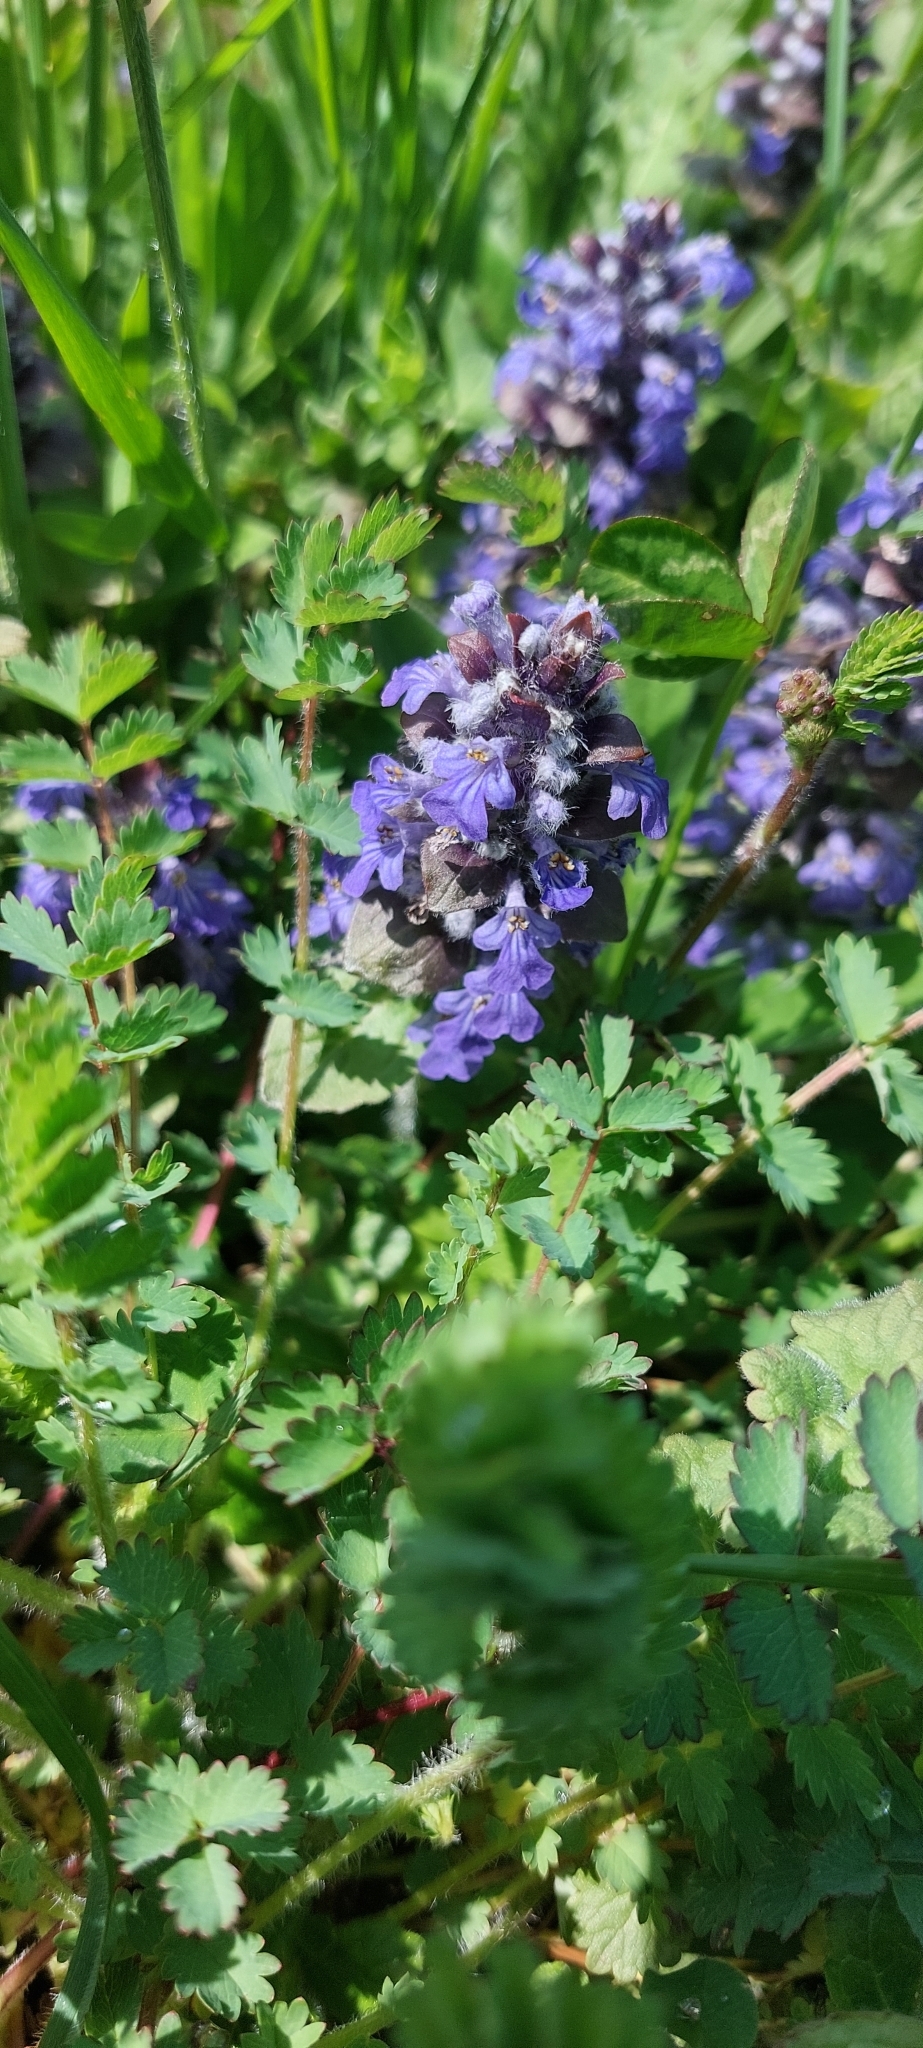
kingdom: Plantae
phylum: Tracheophyta
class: Magnoliopsida
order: Lamiales
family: Lamiaceae
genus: Ajuga
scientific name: Ajuga reptans
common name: Bugle
